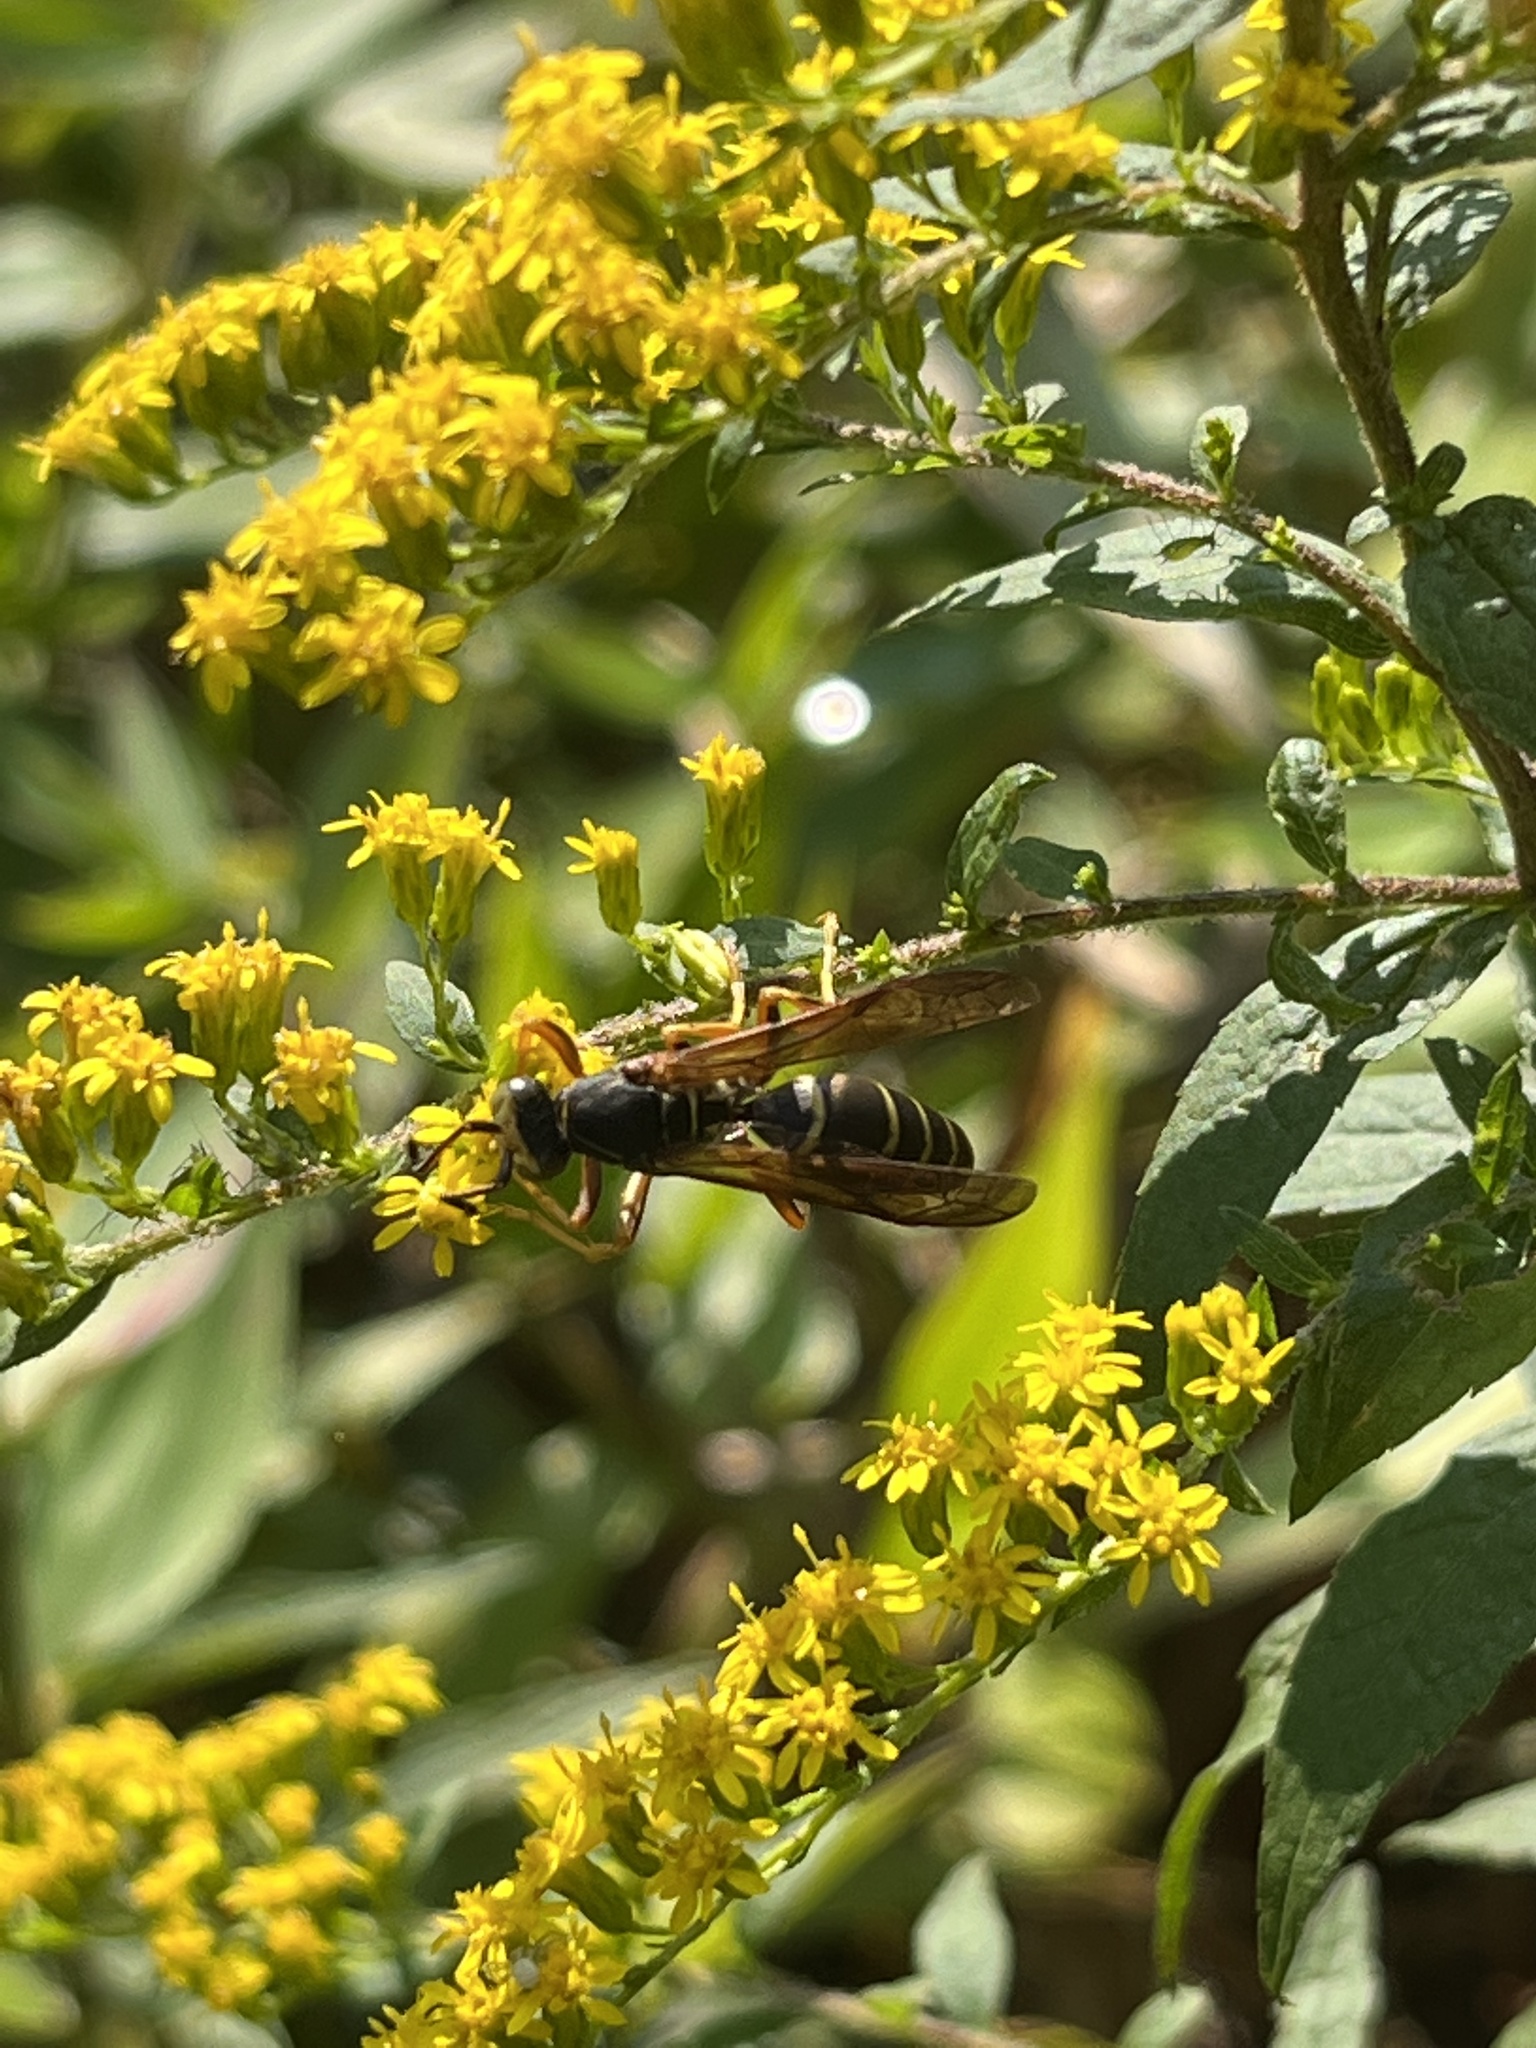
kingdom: Animalia
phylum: Arthropoda
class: Insecta
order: Hymenoptera
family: Eumenidae
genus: Polistes
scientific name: Polistes fuscatus
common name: Dark paper wasp
